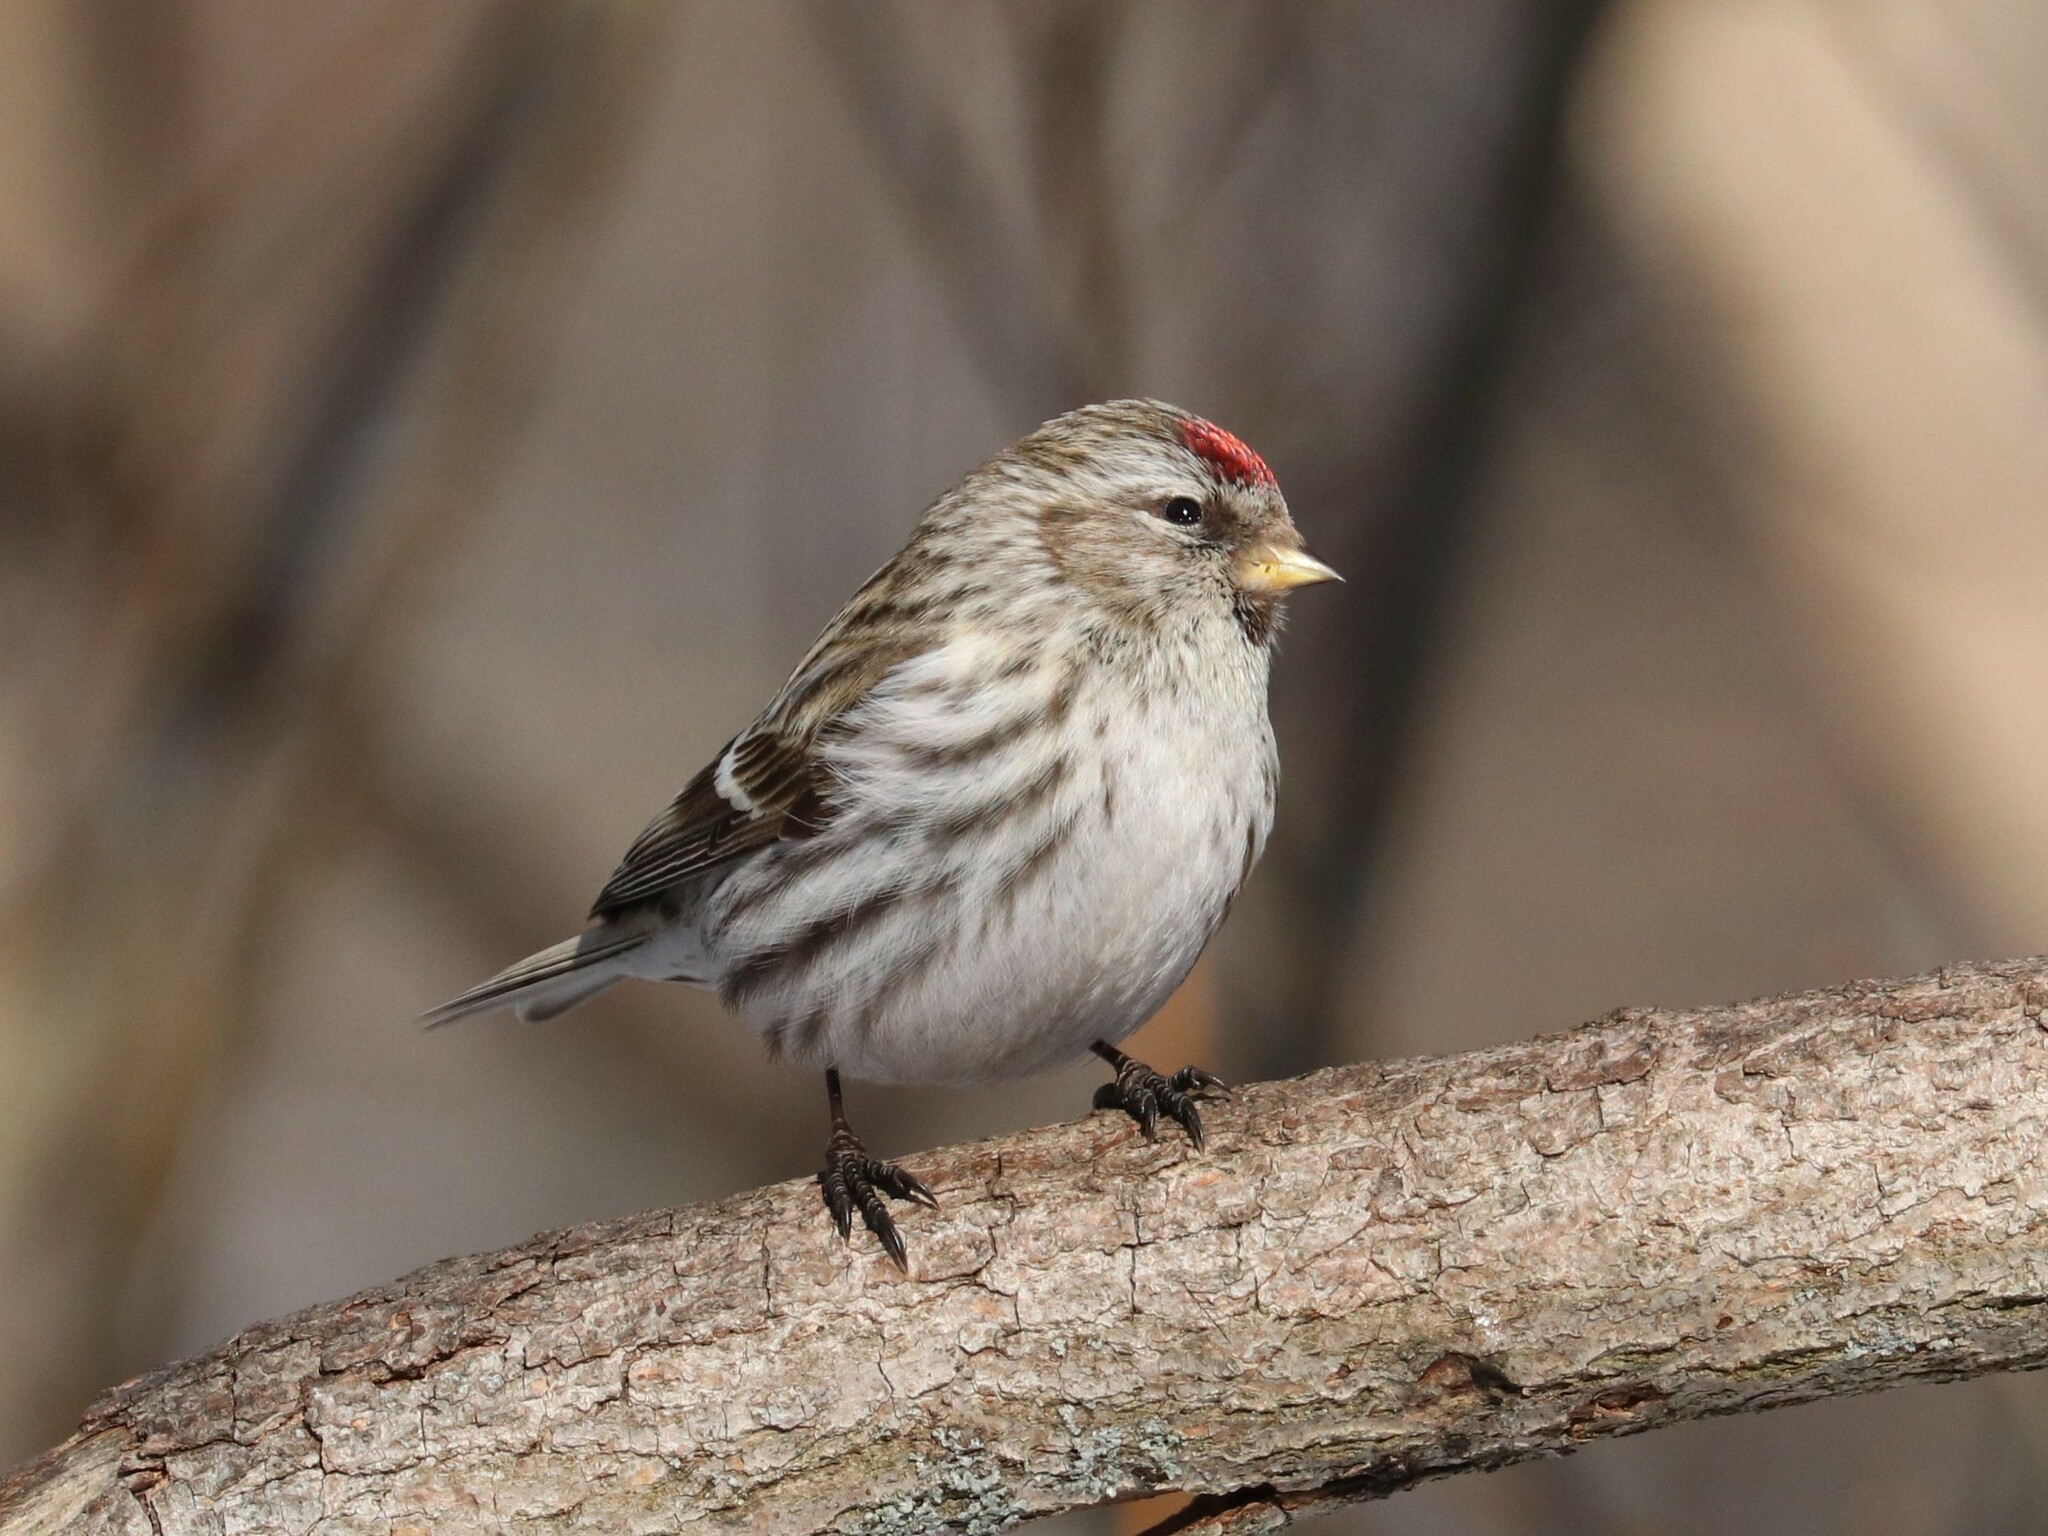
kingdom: Animalia
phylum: Chordata
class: Aves
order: Passeriformes
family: Fringillidae
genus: Acanthis
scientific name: Acanthis flammea
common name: Common redpoll
